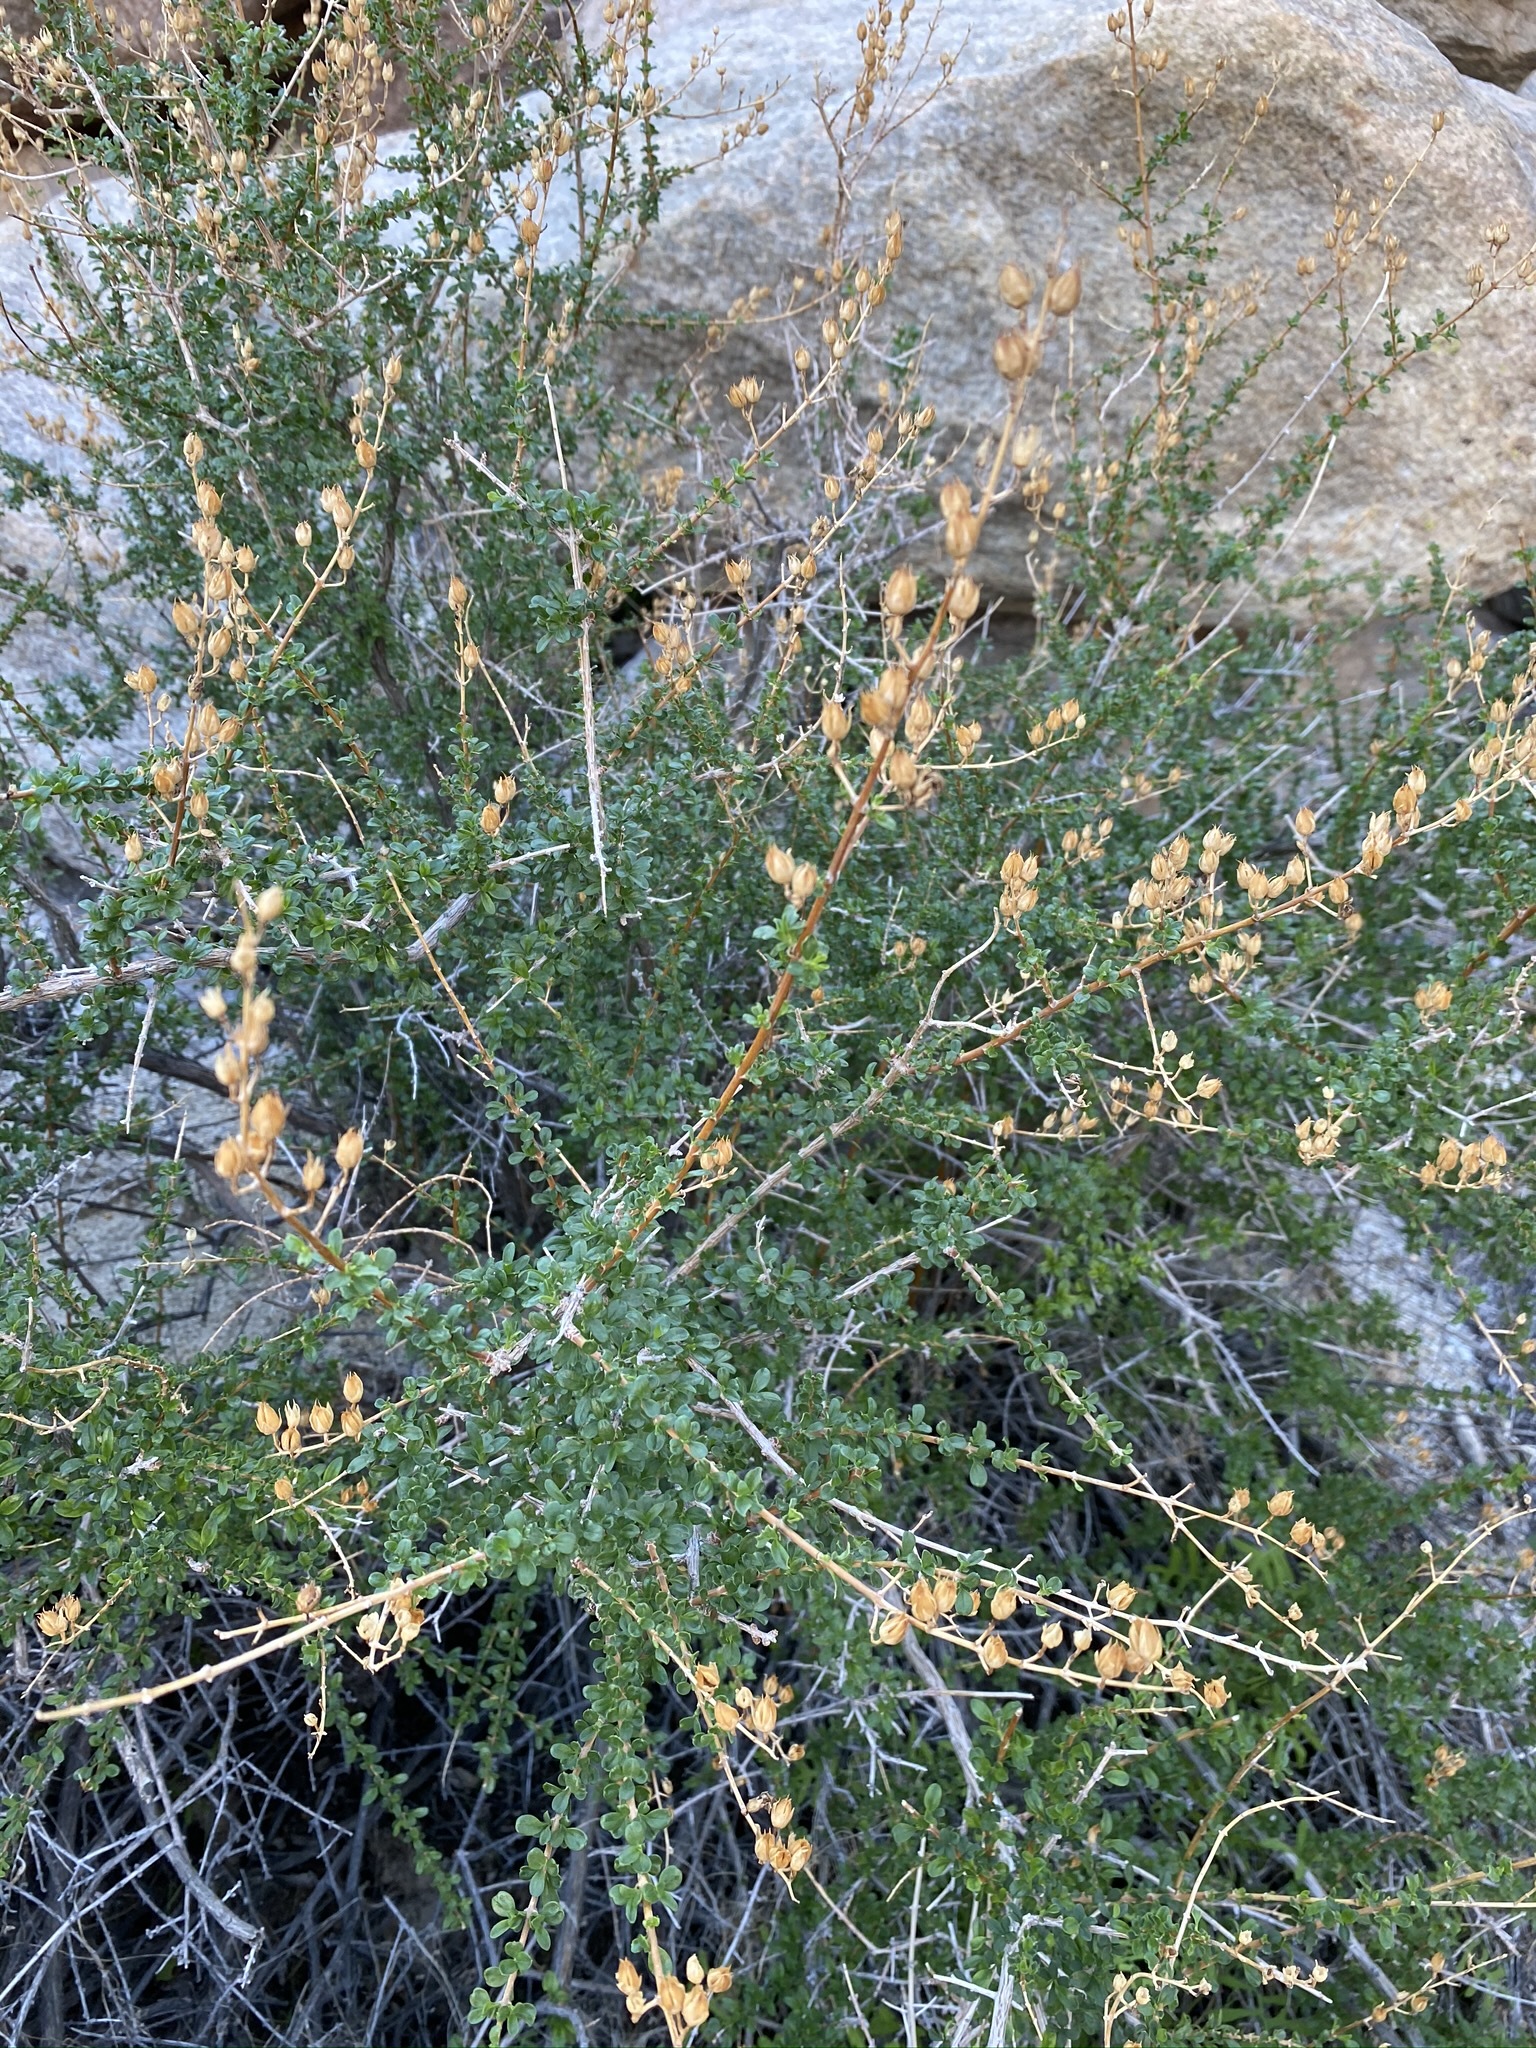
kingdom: Plantae
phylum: Tracheophyta
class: Magnoliopsida
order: Lamiales
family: Plantaginaceae
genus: Keckiella
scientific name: Keckiella antirrhinoides
